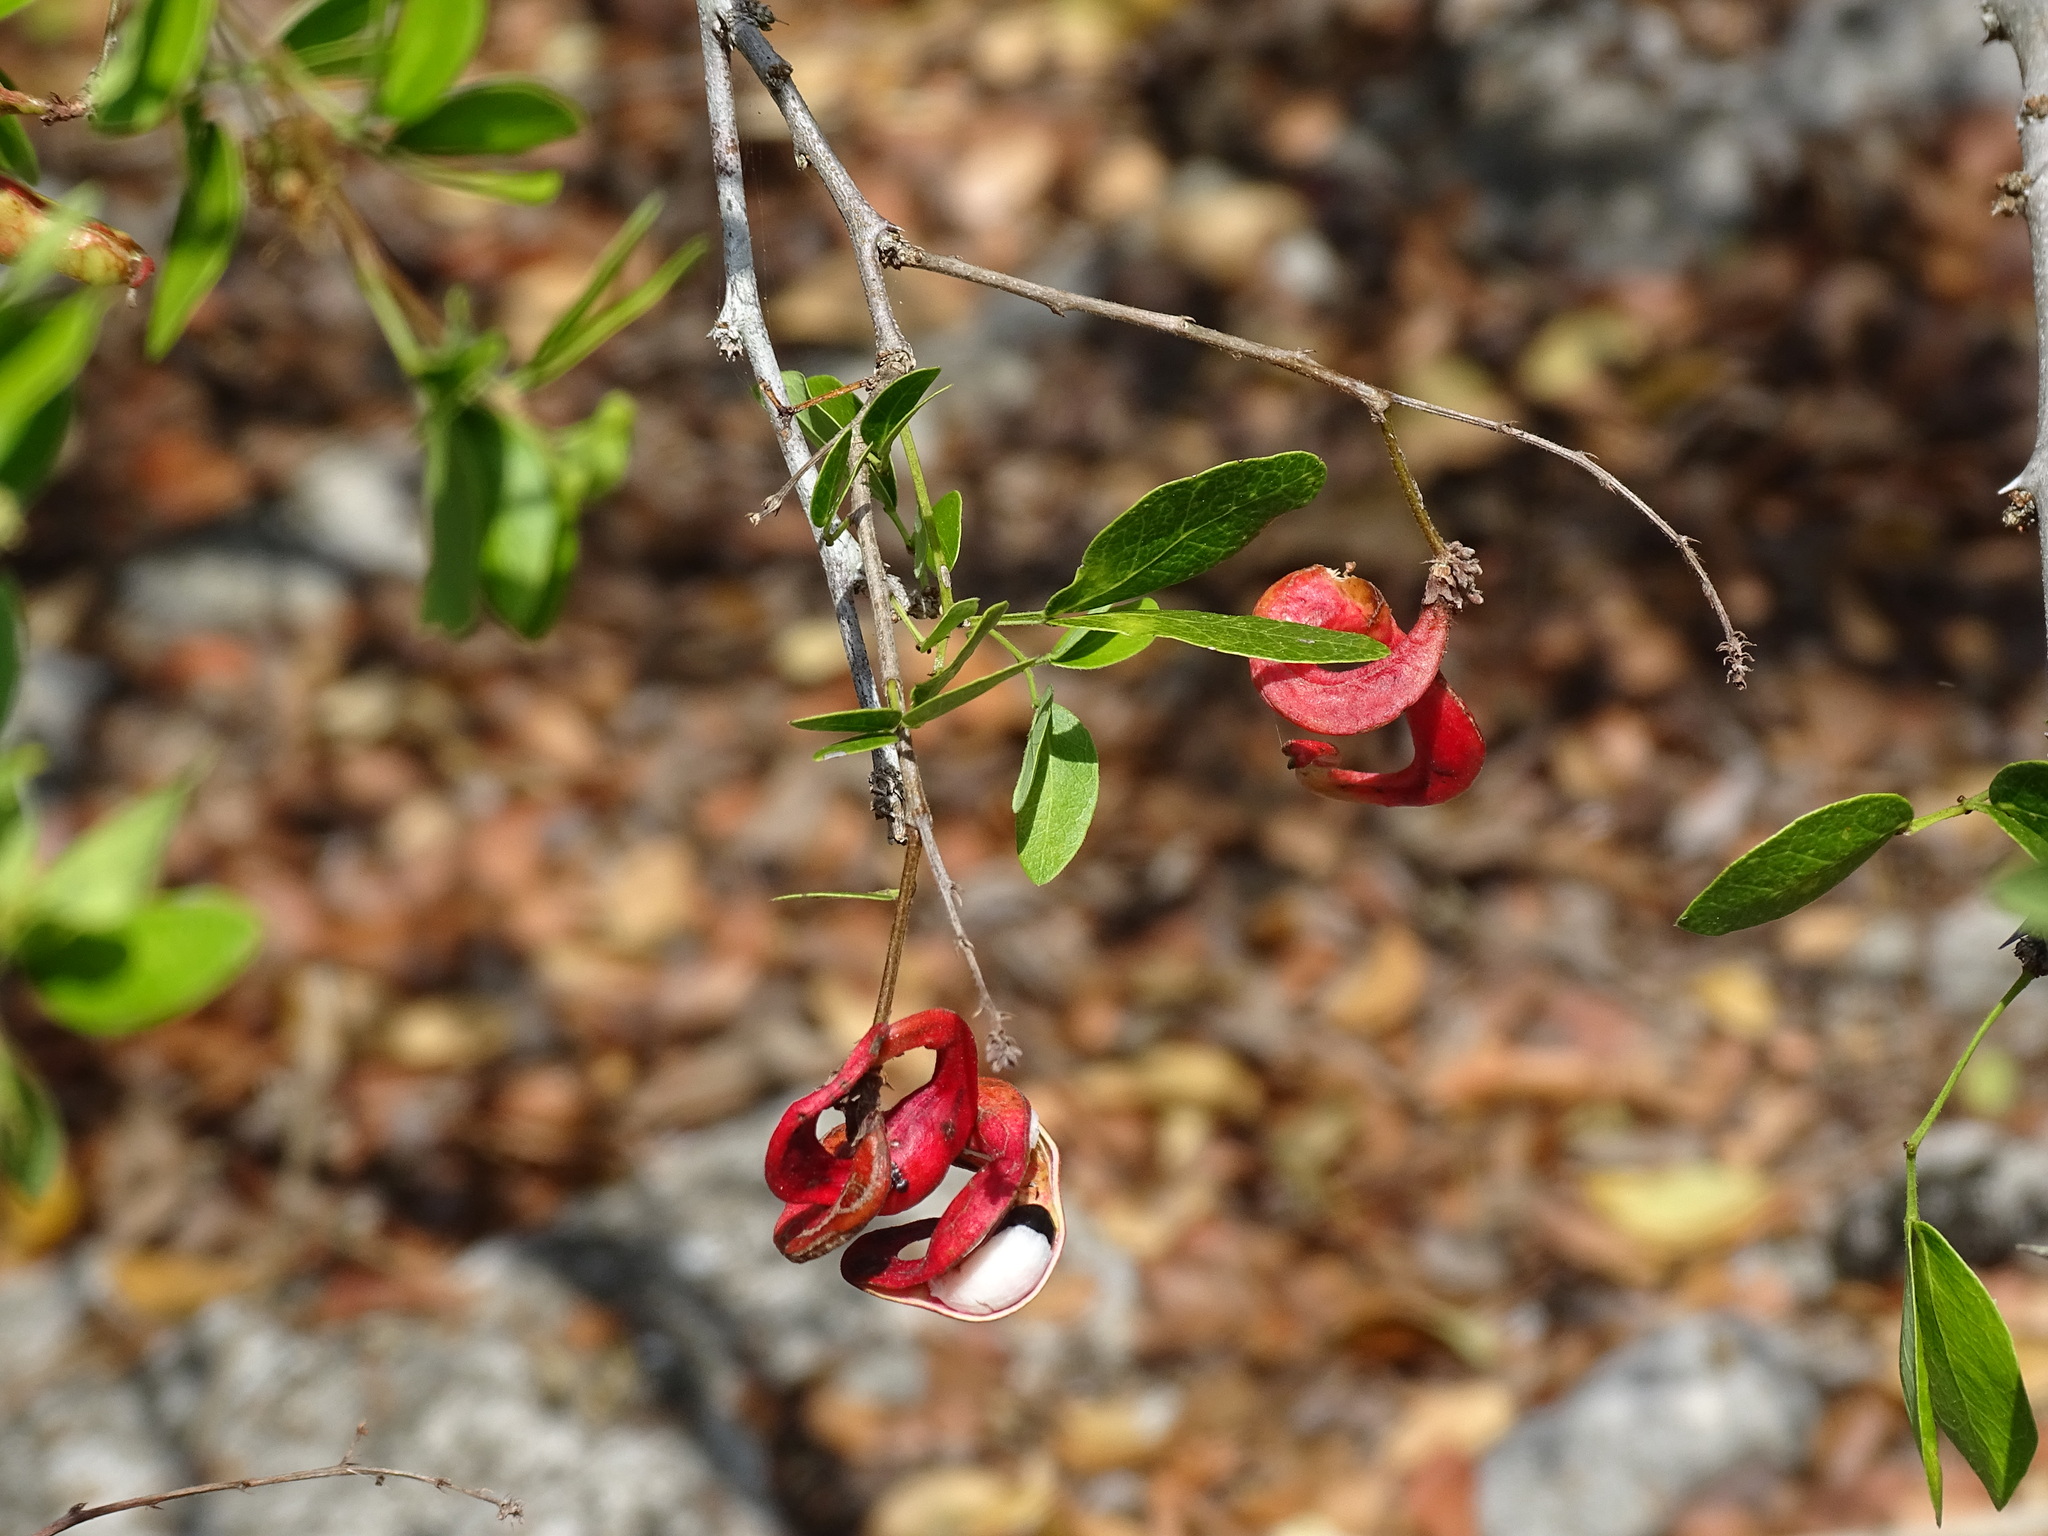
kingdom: Plantae
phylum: Tracheophyta
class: Magnoliopsida
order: Fabales
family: Fabaceae
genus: Pithecellobium
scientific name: Pithecellobium unguis-cati
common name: Cat's-claw
